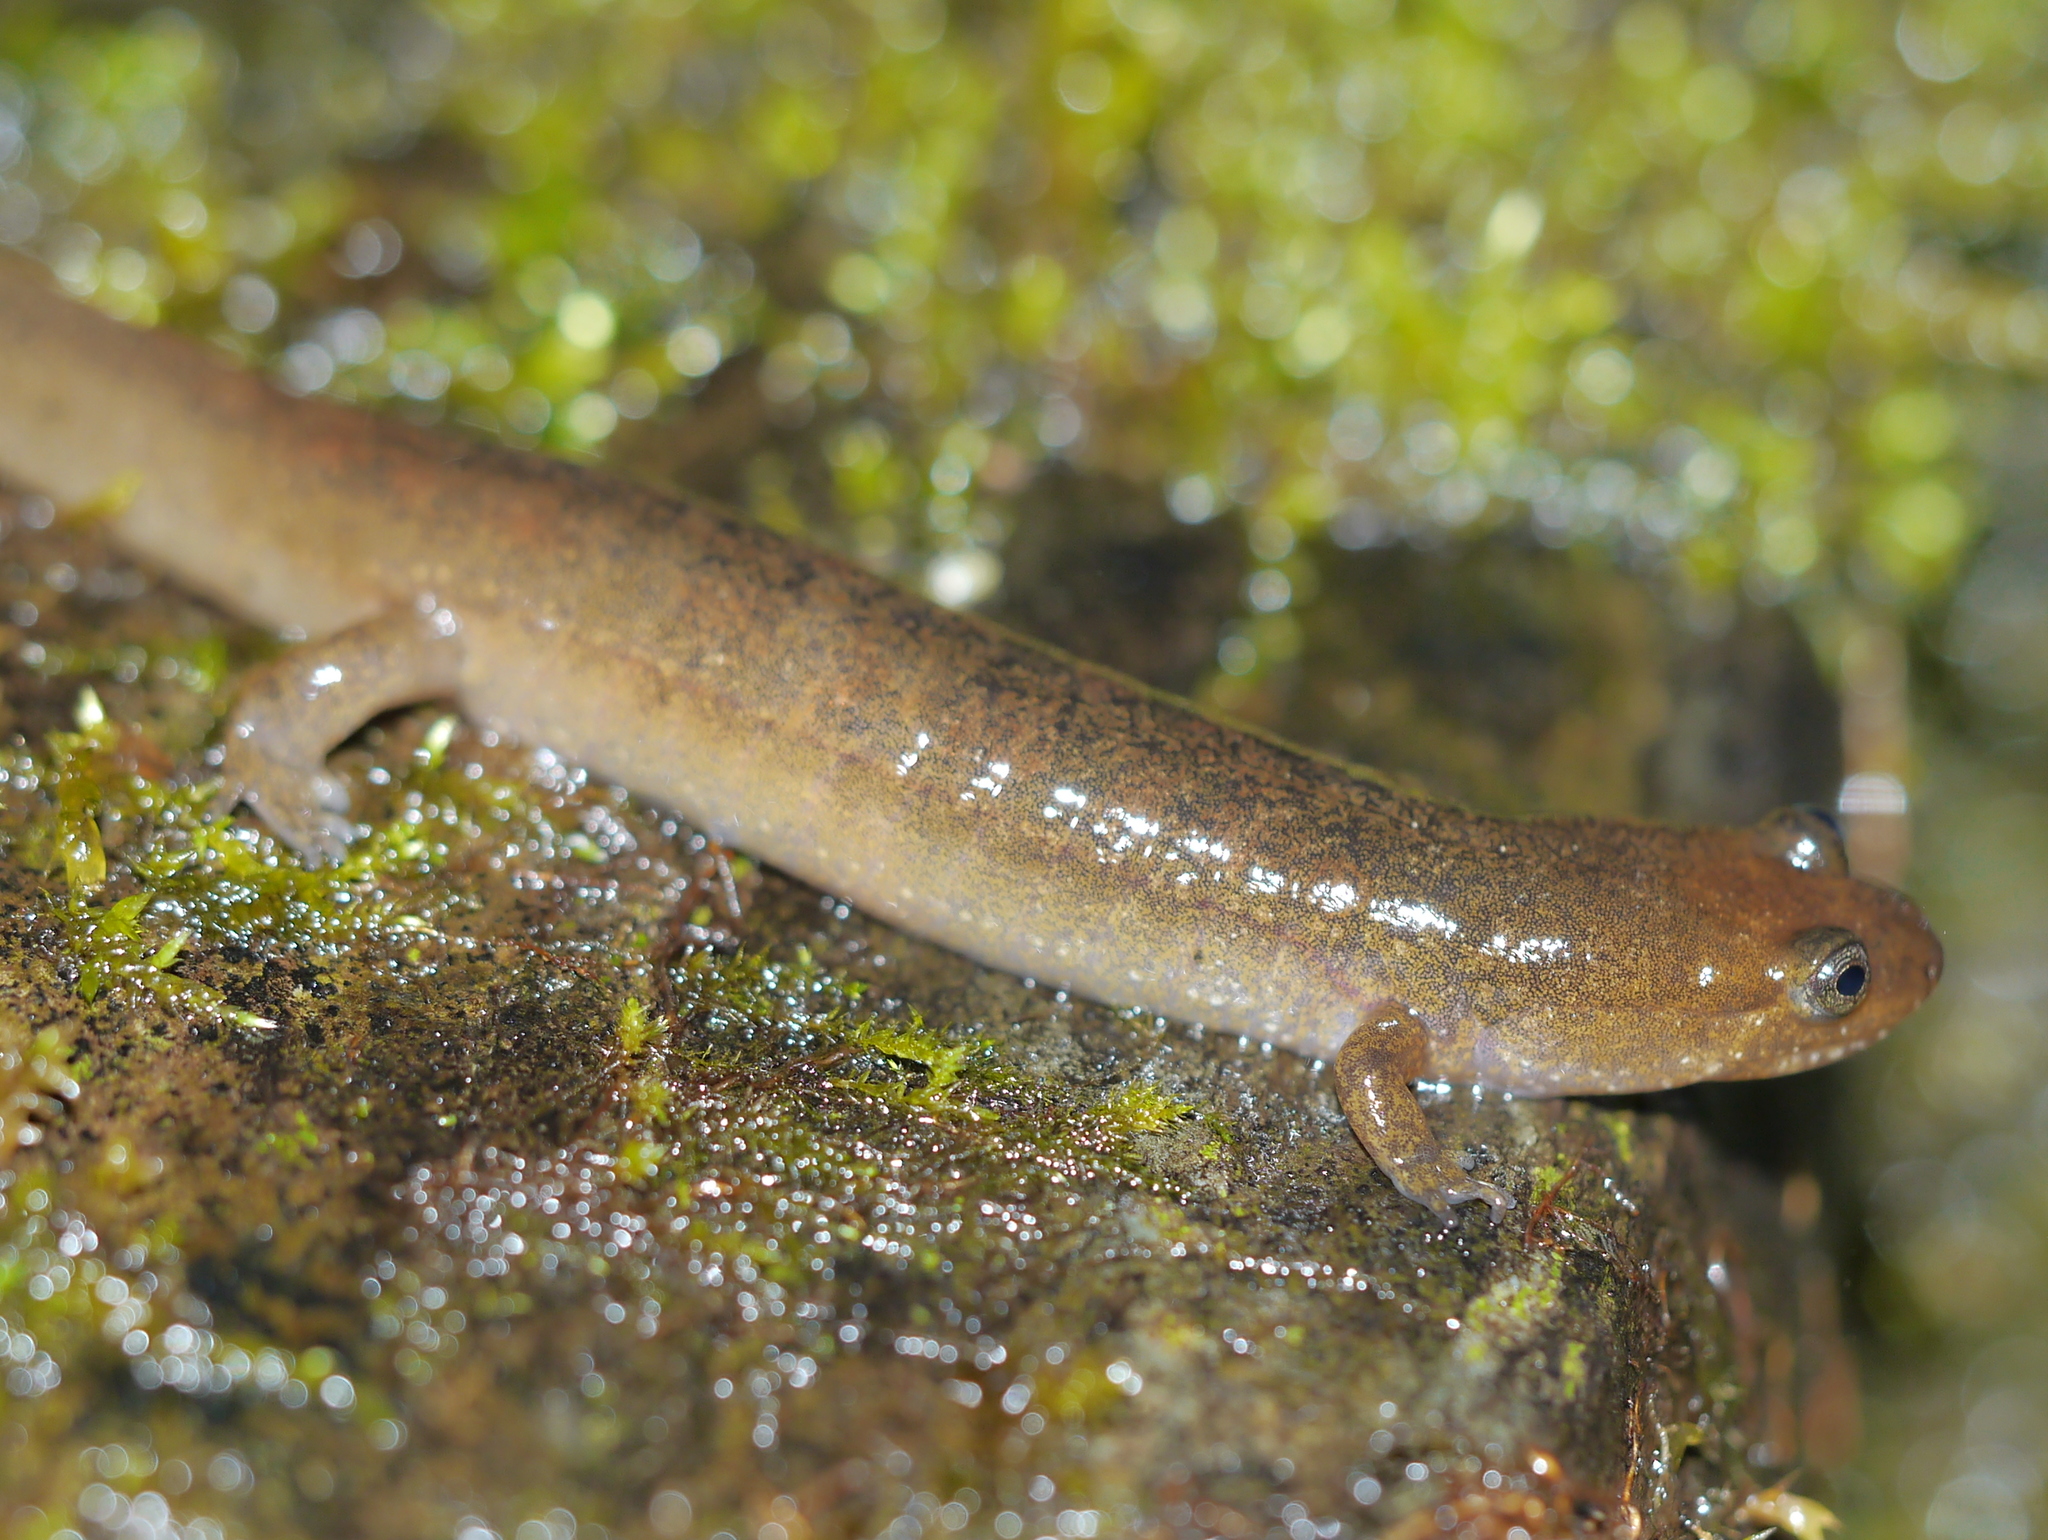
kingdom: Animalia
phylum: Chordata
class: Amphibia
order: Caudata
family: Plethodontidae
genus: Desmognathus
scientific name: Desmognathus monticola
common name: Seal salamander
